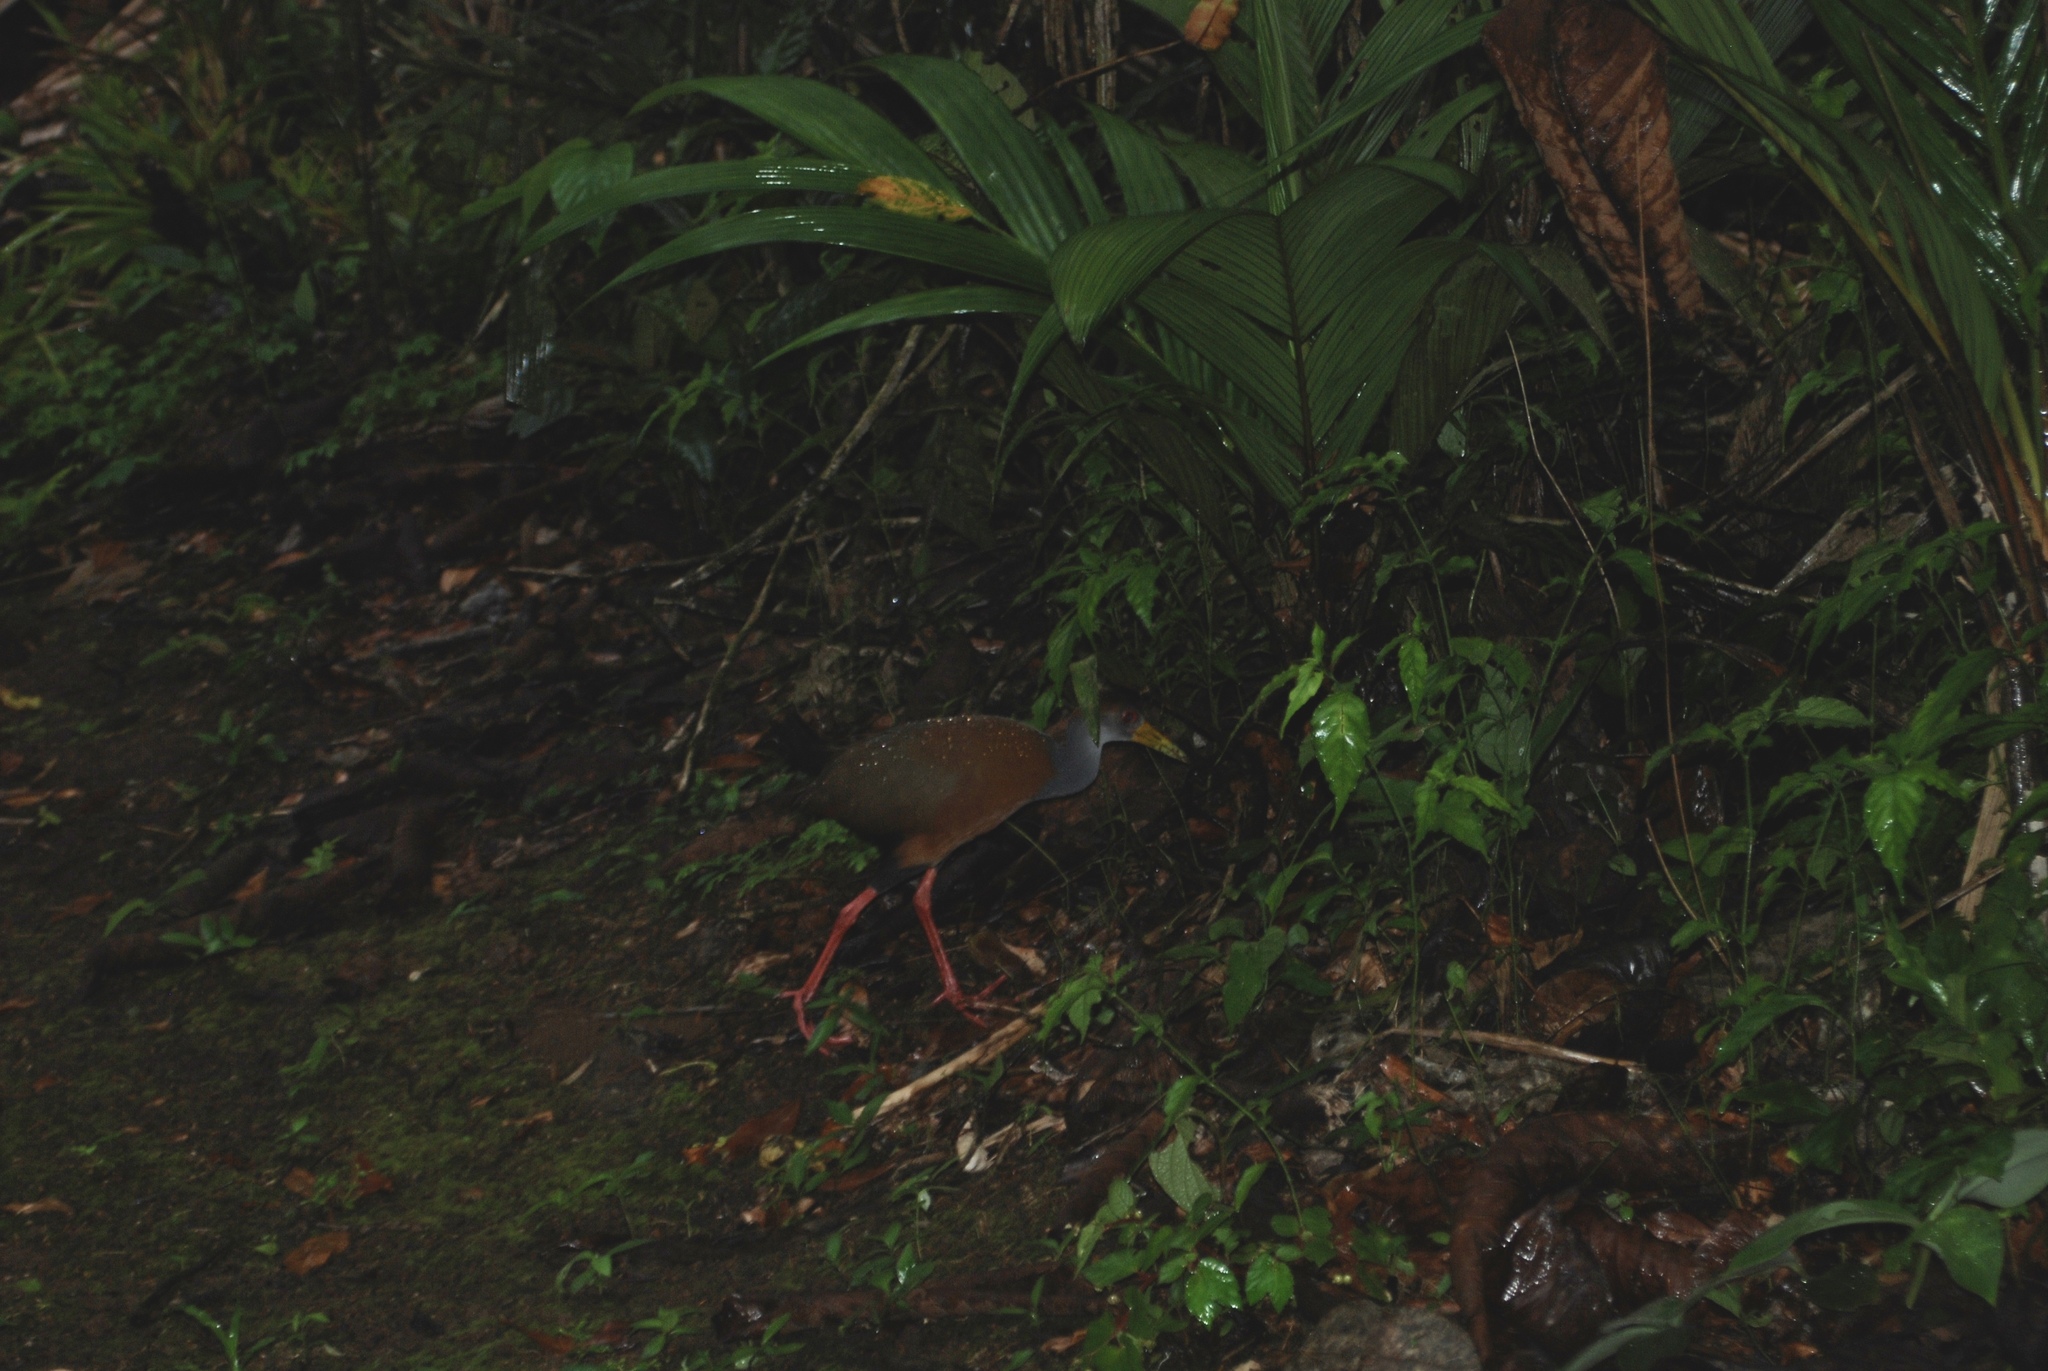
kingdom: Animalia
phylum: Chordata
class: Aves
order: Gruiformes
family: Rallidae
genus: Aramides
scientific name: Aramides albiventris
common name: Russet-naped wood-rail
